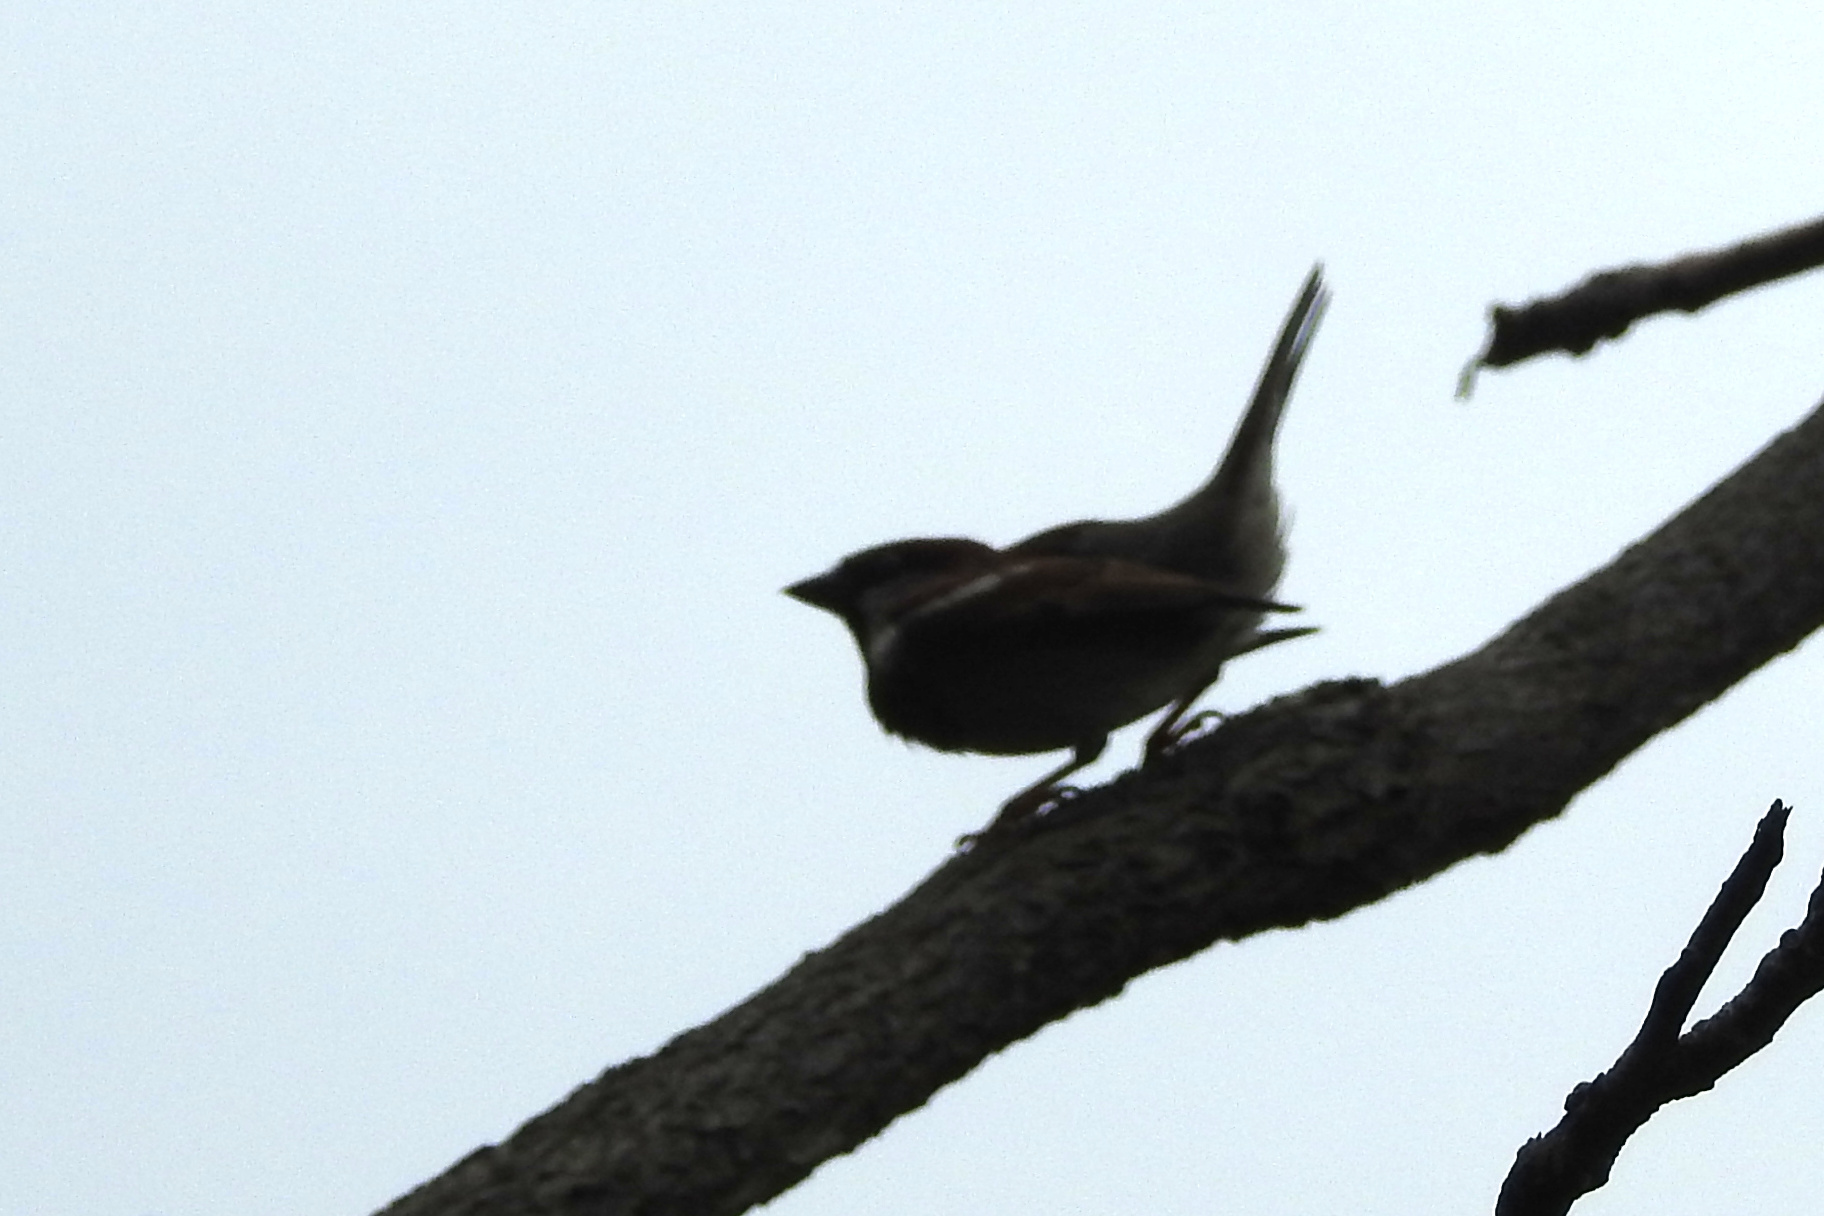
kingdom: Animalia
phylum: Chordata
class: Aves
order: Passeriformes
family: Passeridae
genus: Passer
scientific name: Passer domesticus
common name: House sparrow
